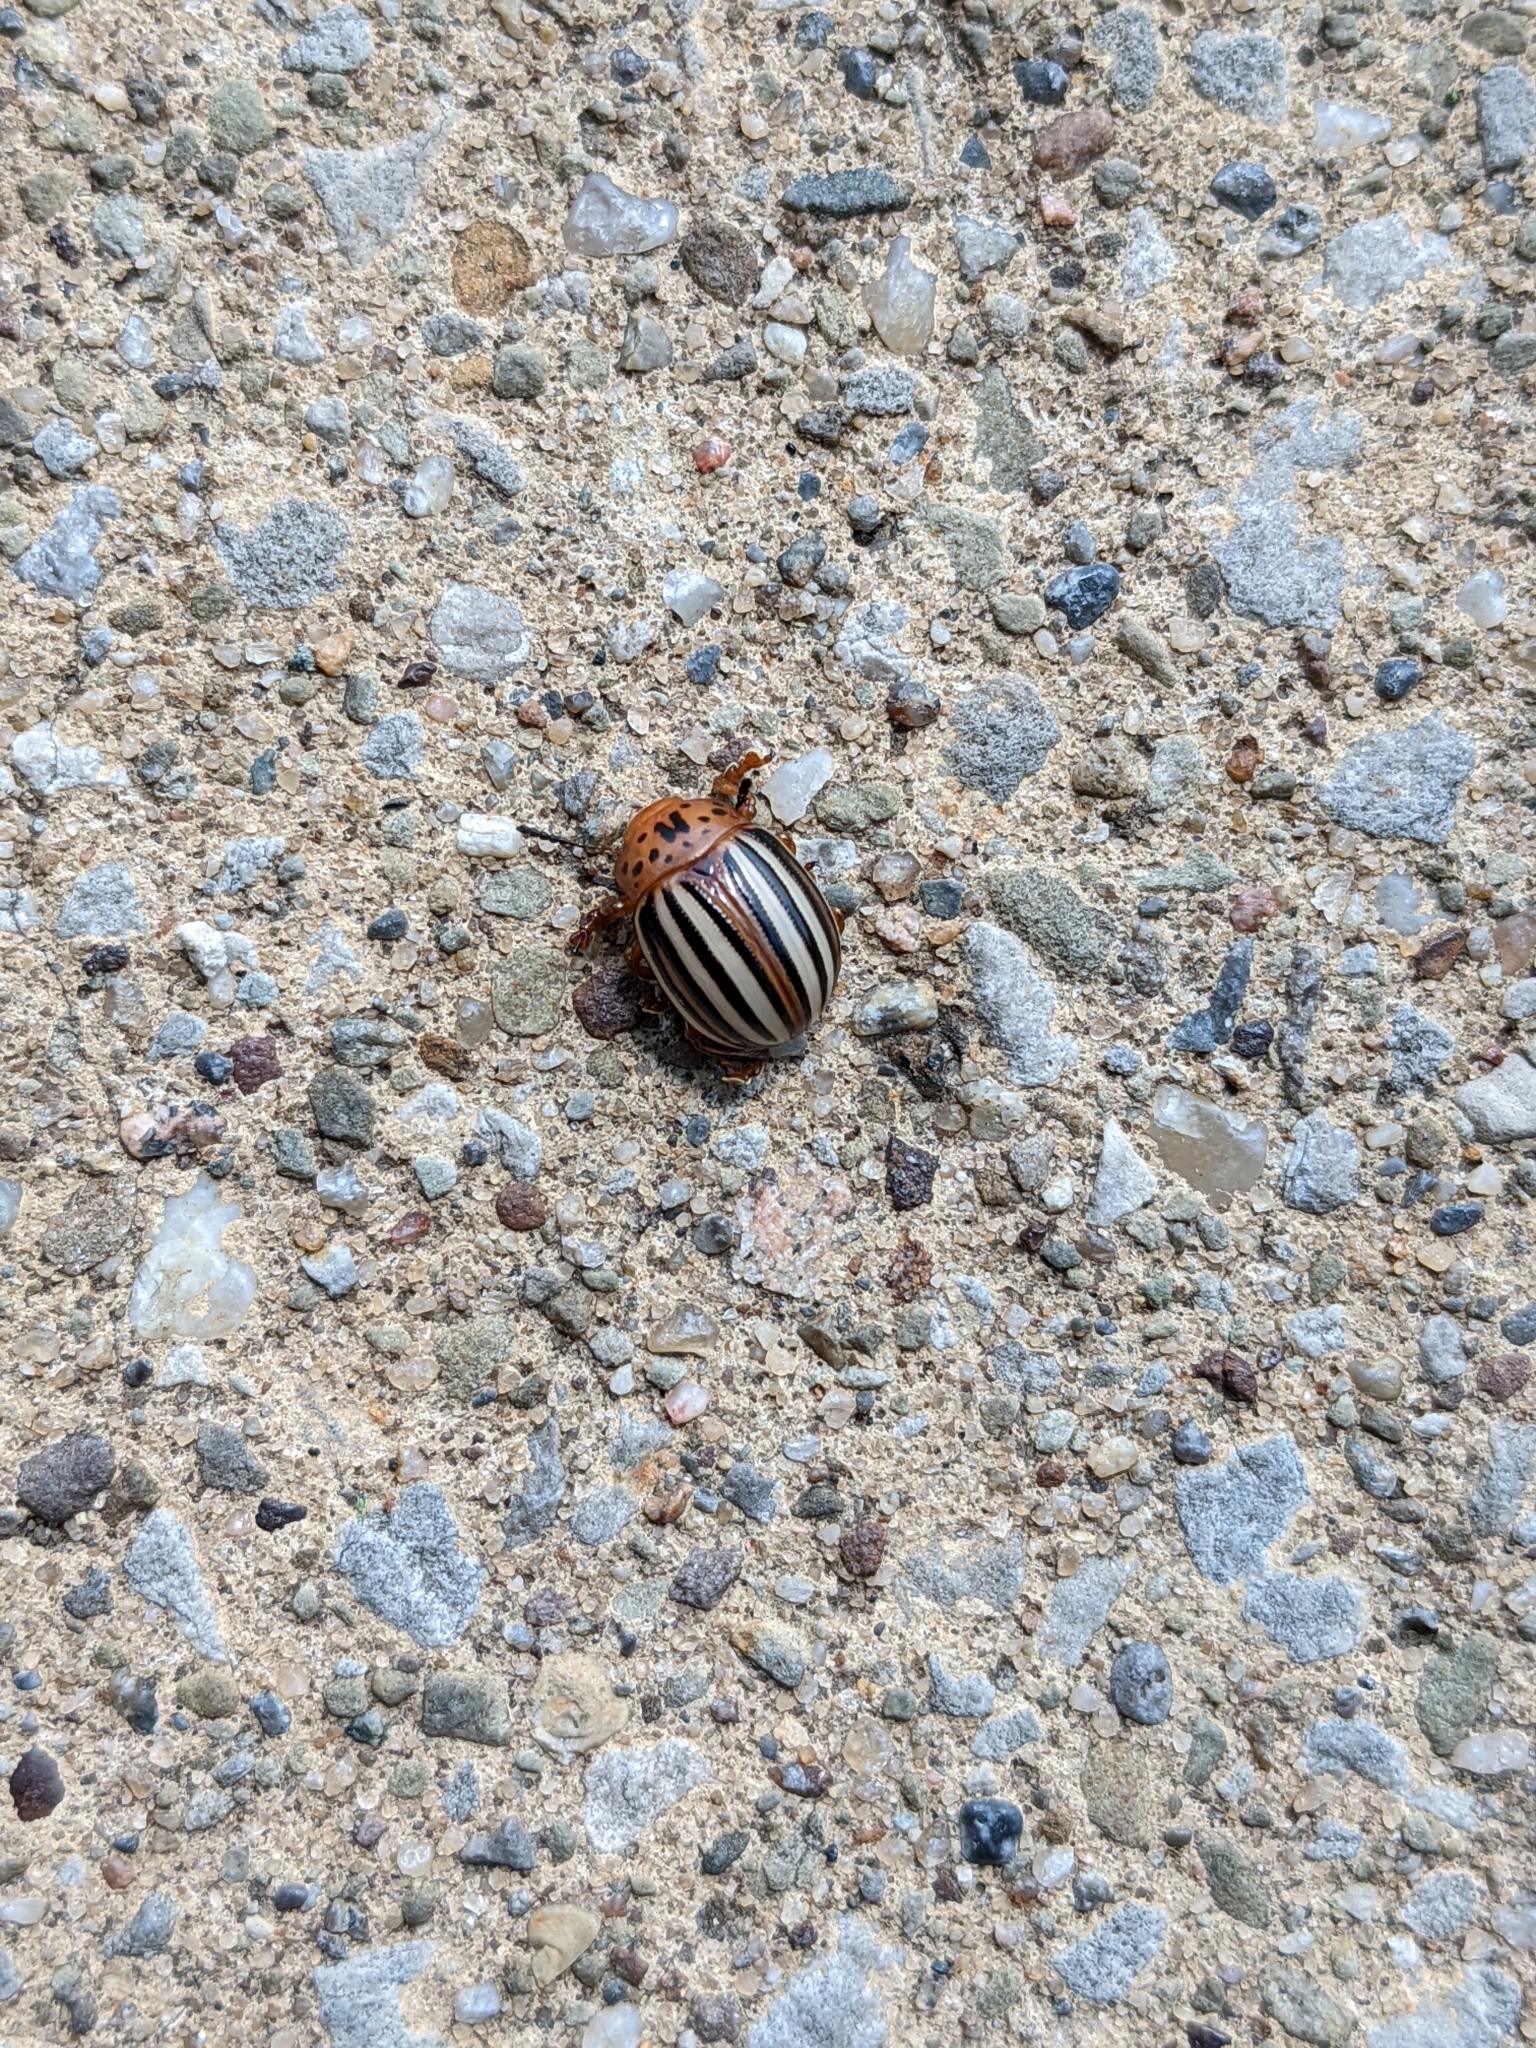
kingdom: Animalia
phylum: Arthropoda
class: Insecta
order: Coleoptera
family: Chrysomelidae
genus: Leptinotarsa
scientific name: Leptinotarsa juncta
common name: False potato beetle
